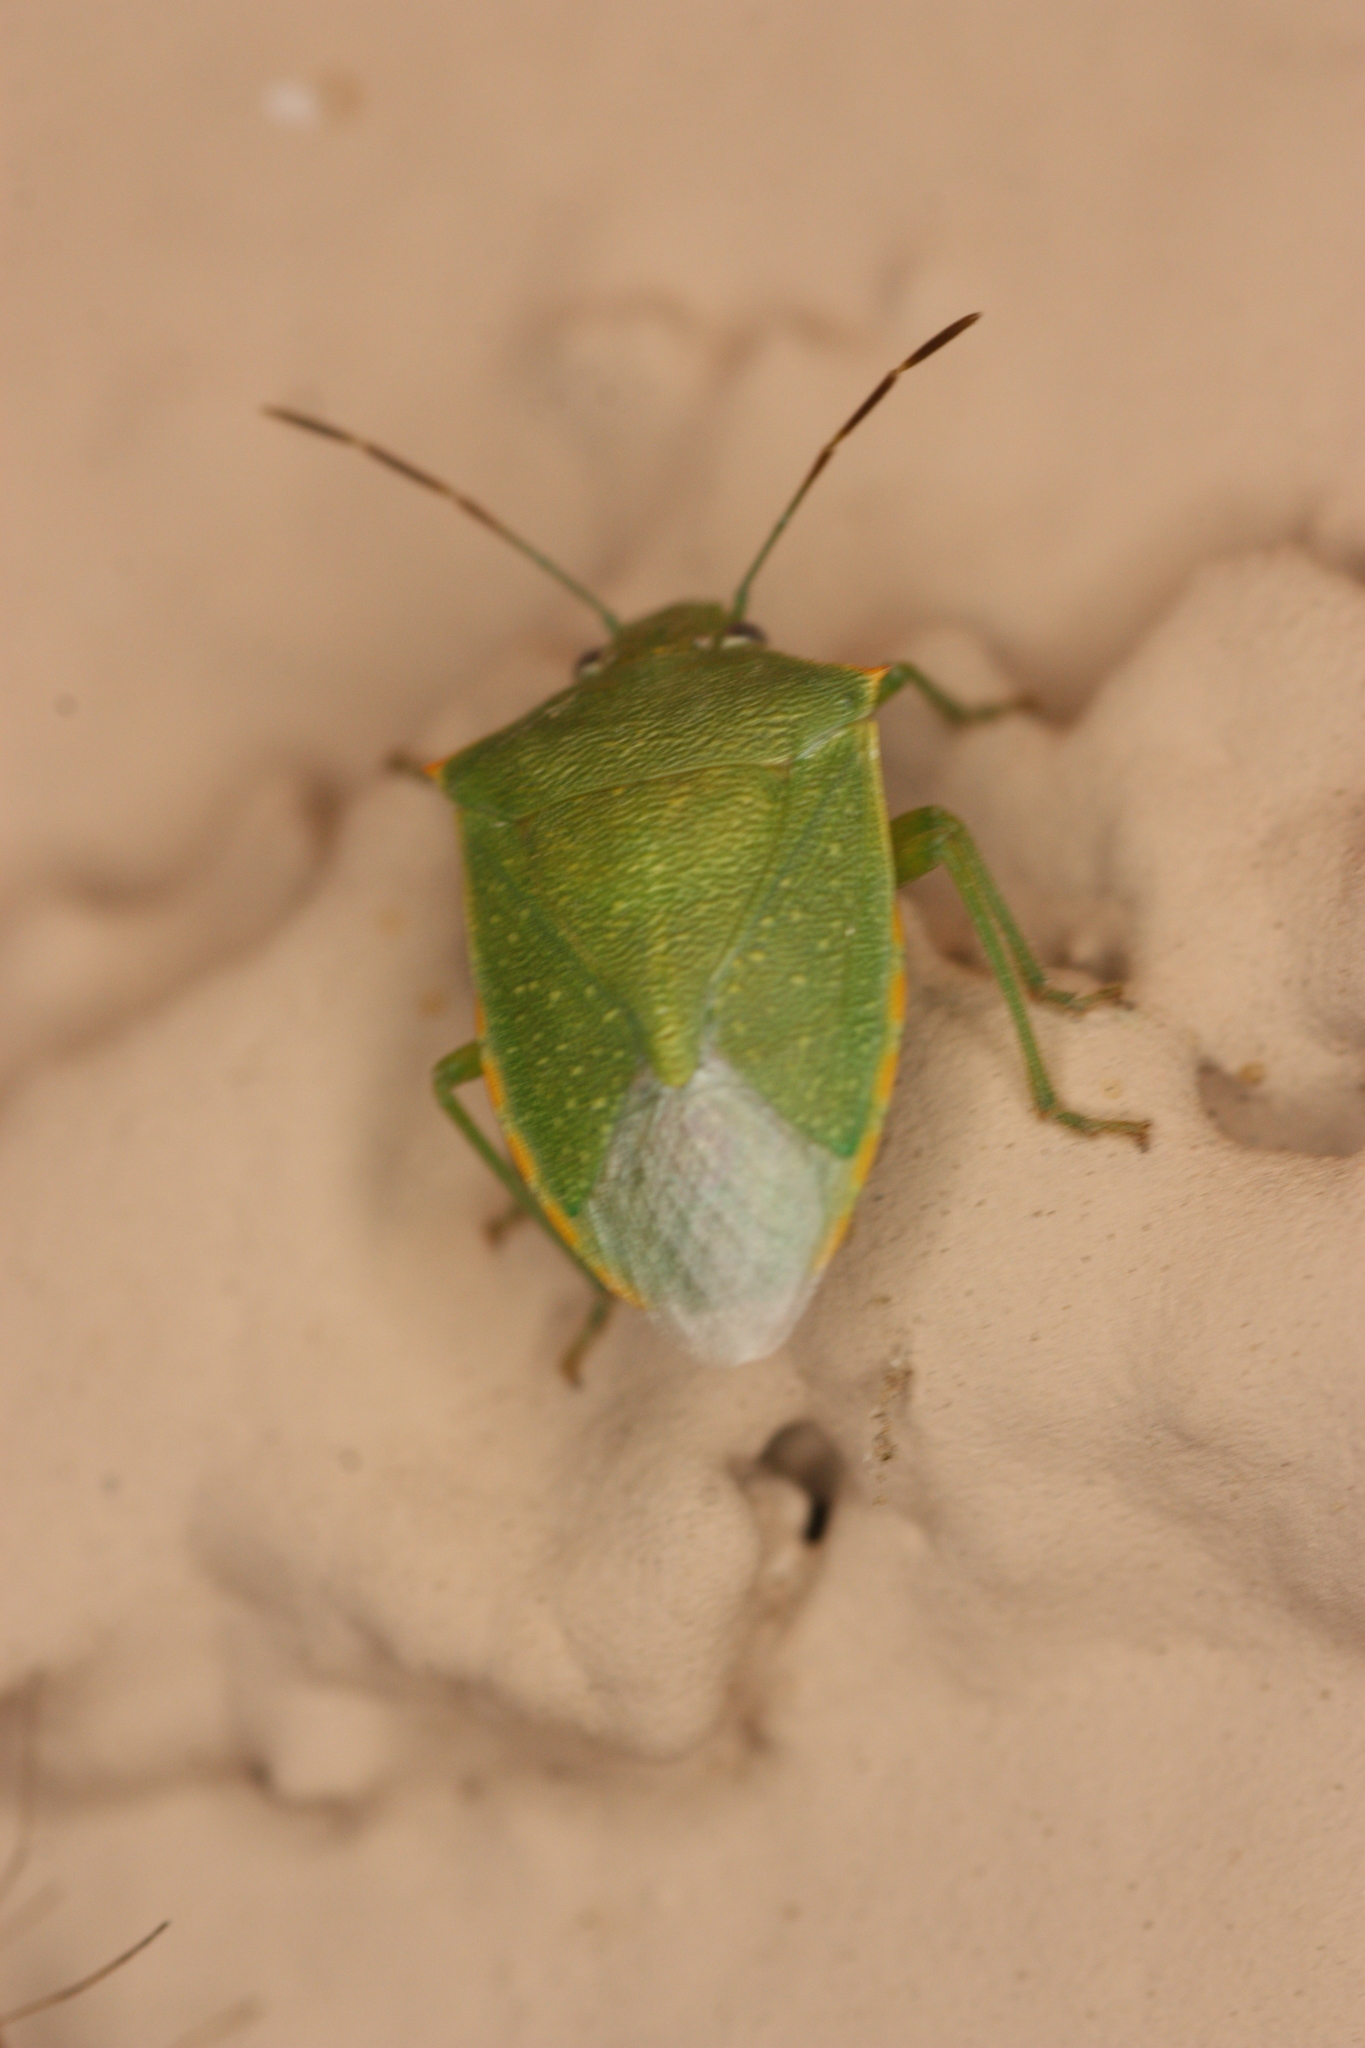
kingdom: Animalia
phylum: Arthropoda
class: Insecta
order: Hemiptera
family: Pentatomidae
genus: Thyanta
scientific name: Thyanta accerra
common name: Stink bug
